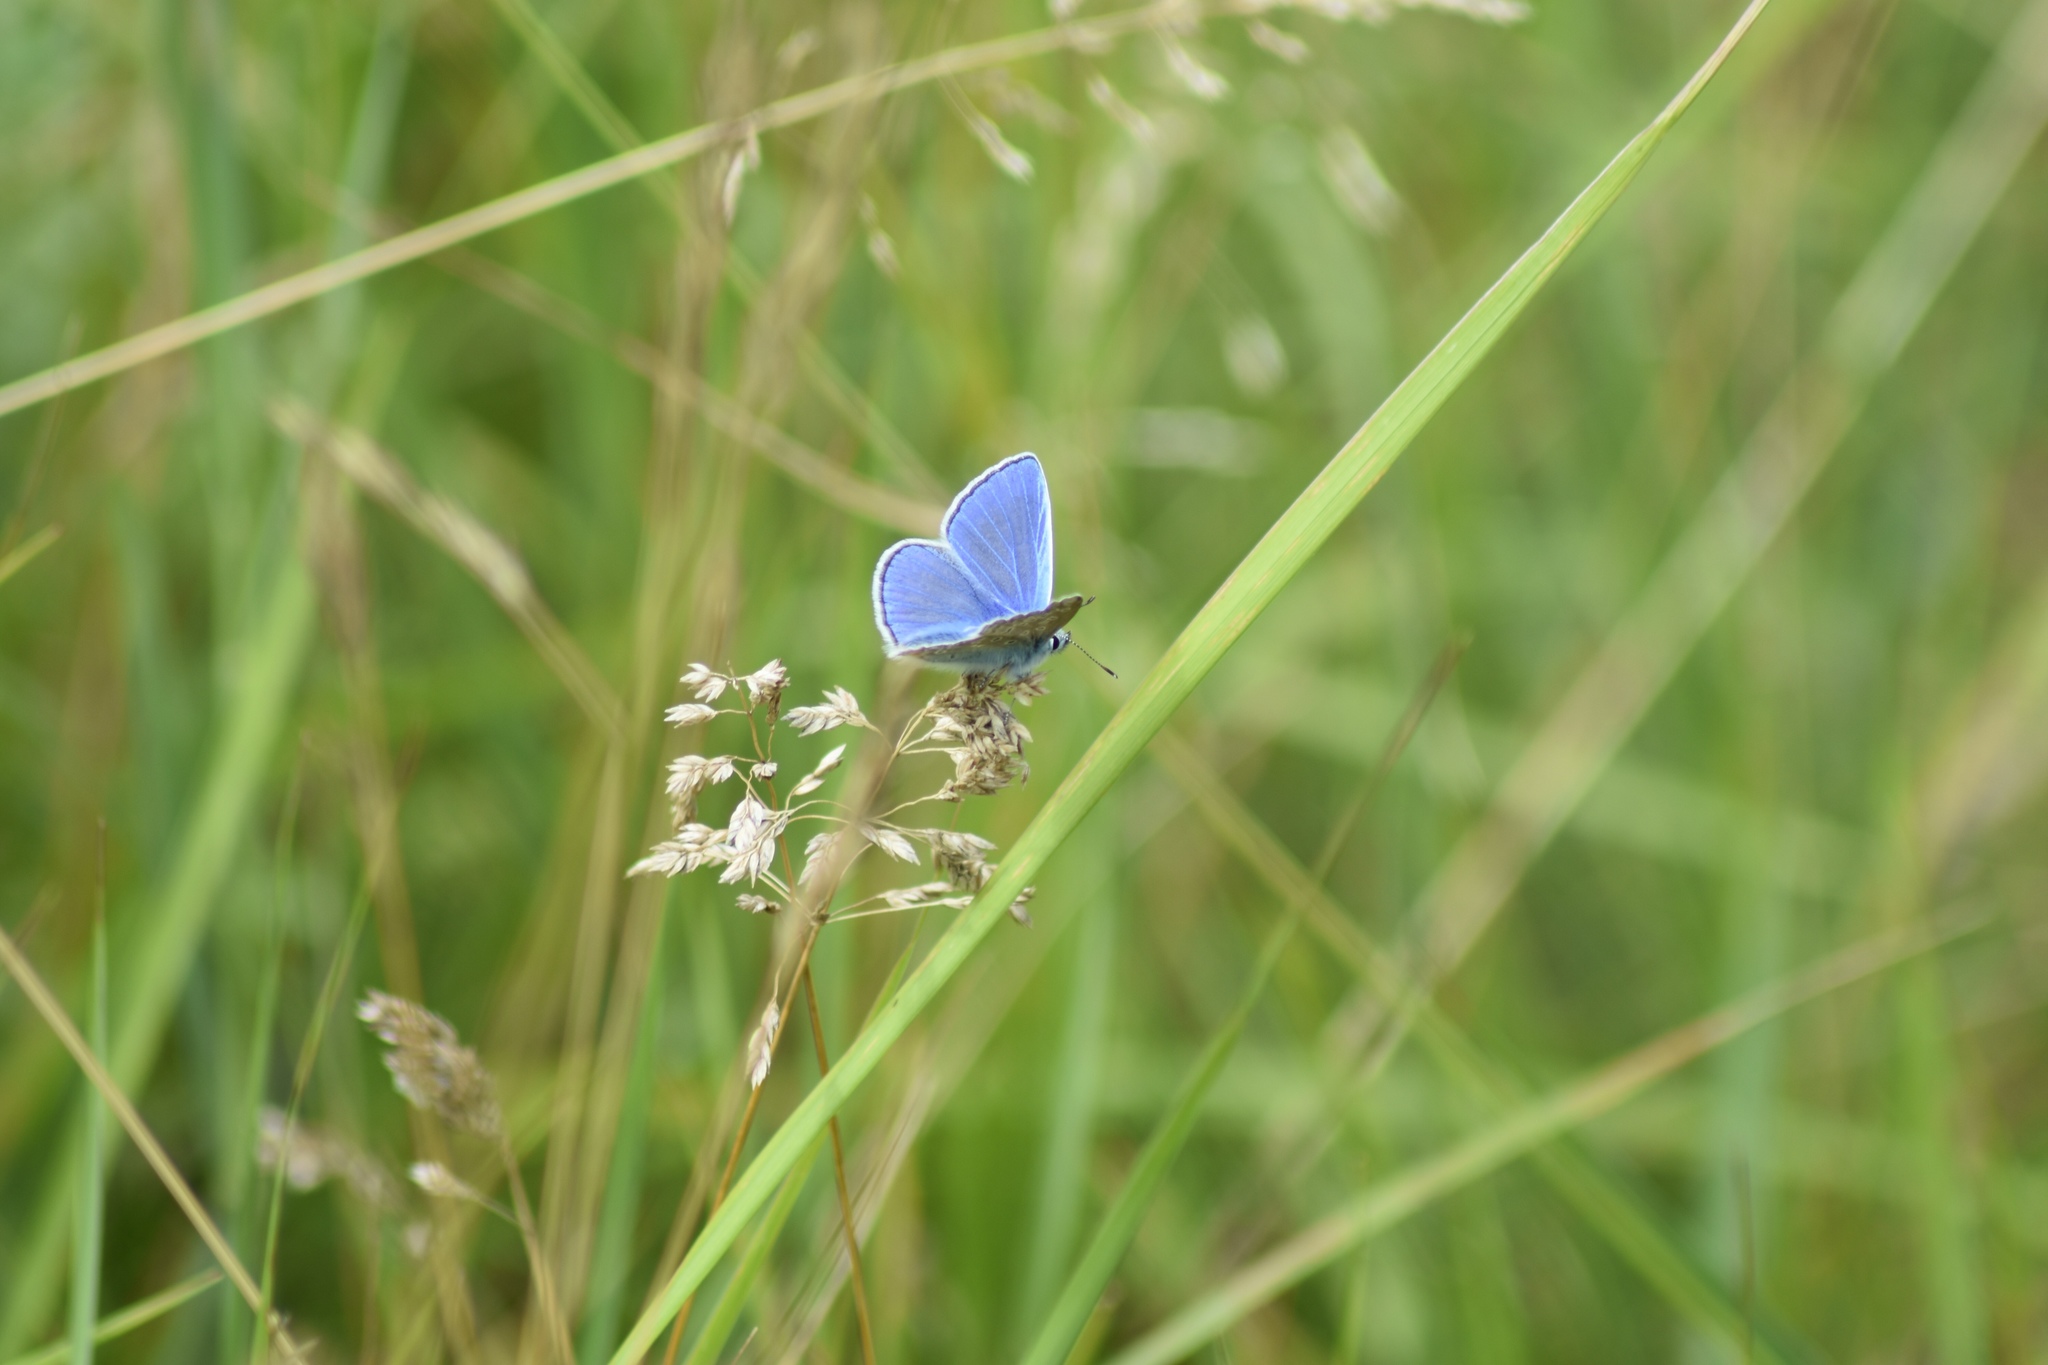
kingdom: Animalia
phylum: Arthropoda
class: Insecta
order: Lepidoptera
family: Lycaenidae
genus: Polyommatus
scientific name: Polyommatus icarus
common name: Common blue
